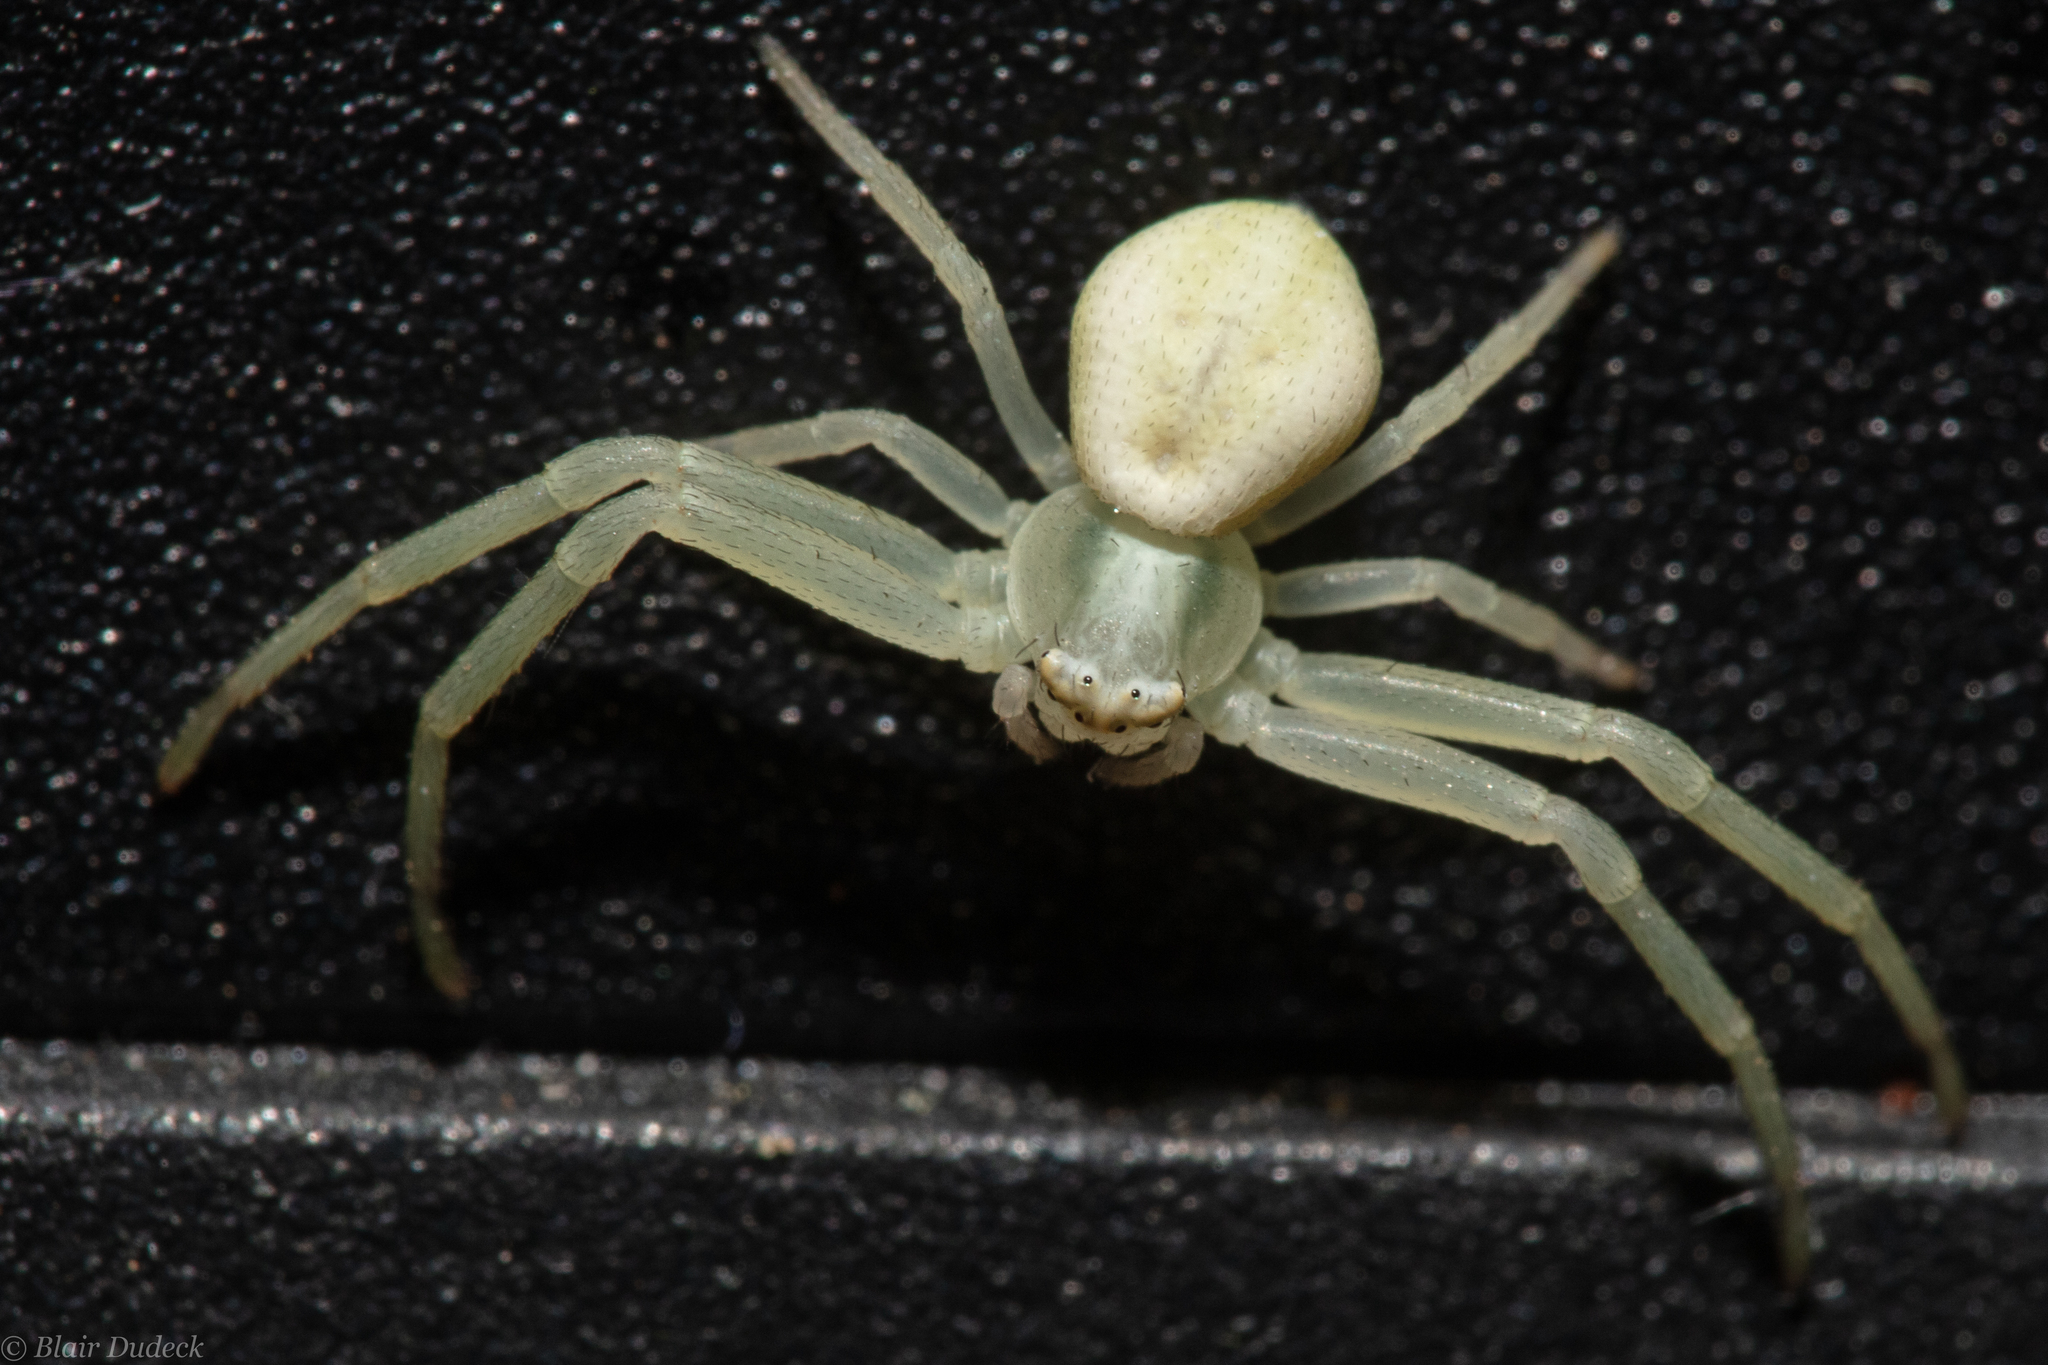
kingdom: Animalia
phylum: Arthropoda
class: Arachnida
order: Araneae
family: Thomisidae
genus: Misumena
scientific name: Misumena vatia
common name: Goldenrod crab spider
